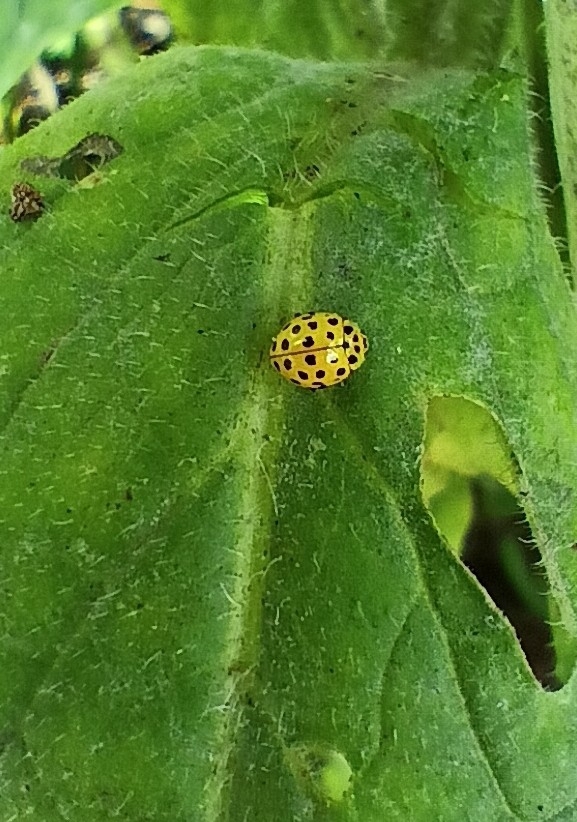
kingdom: Animalia
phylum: Arthropoda
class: Insecta
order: Coleoptera
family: Coccinellidae
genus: Psyllobora
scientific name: Psyllobora vigintiduopunctata
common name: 22-spot ladybird
